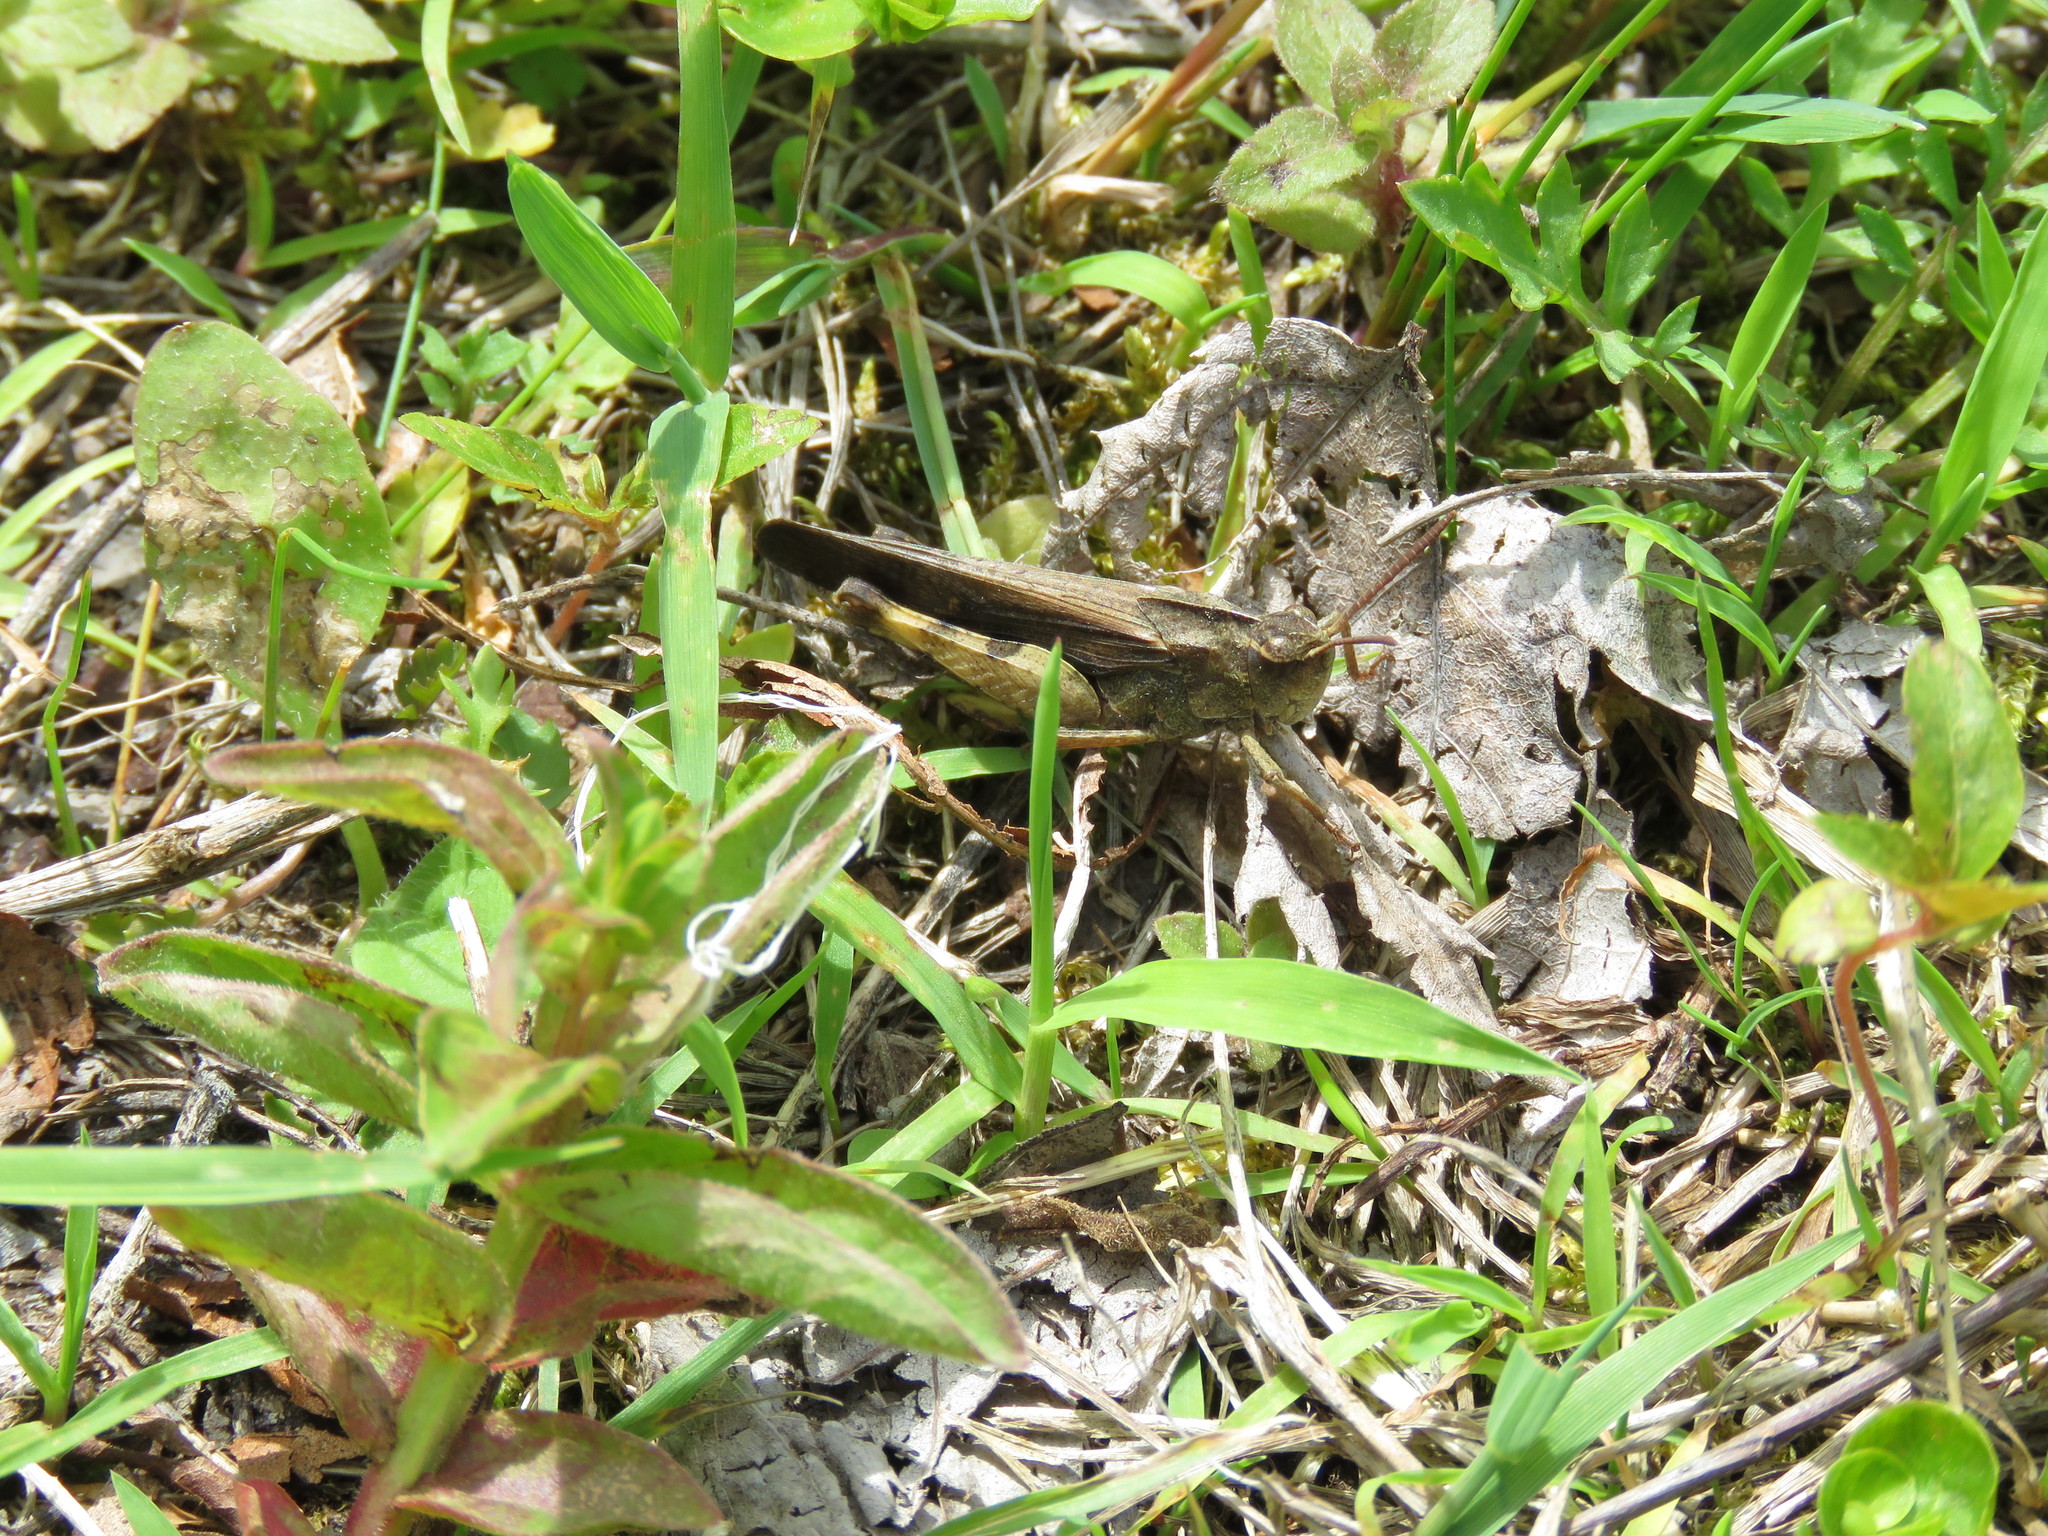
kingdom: Animalia
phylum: Arthropoda
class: Insecta
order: Orthoptera
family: Acrididae
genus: Chortophaga
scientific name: Chortophaga viridifasciata
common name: Green-striped grasshopper
